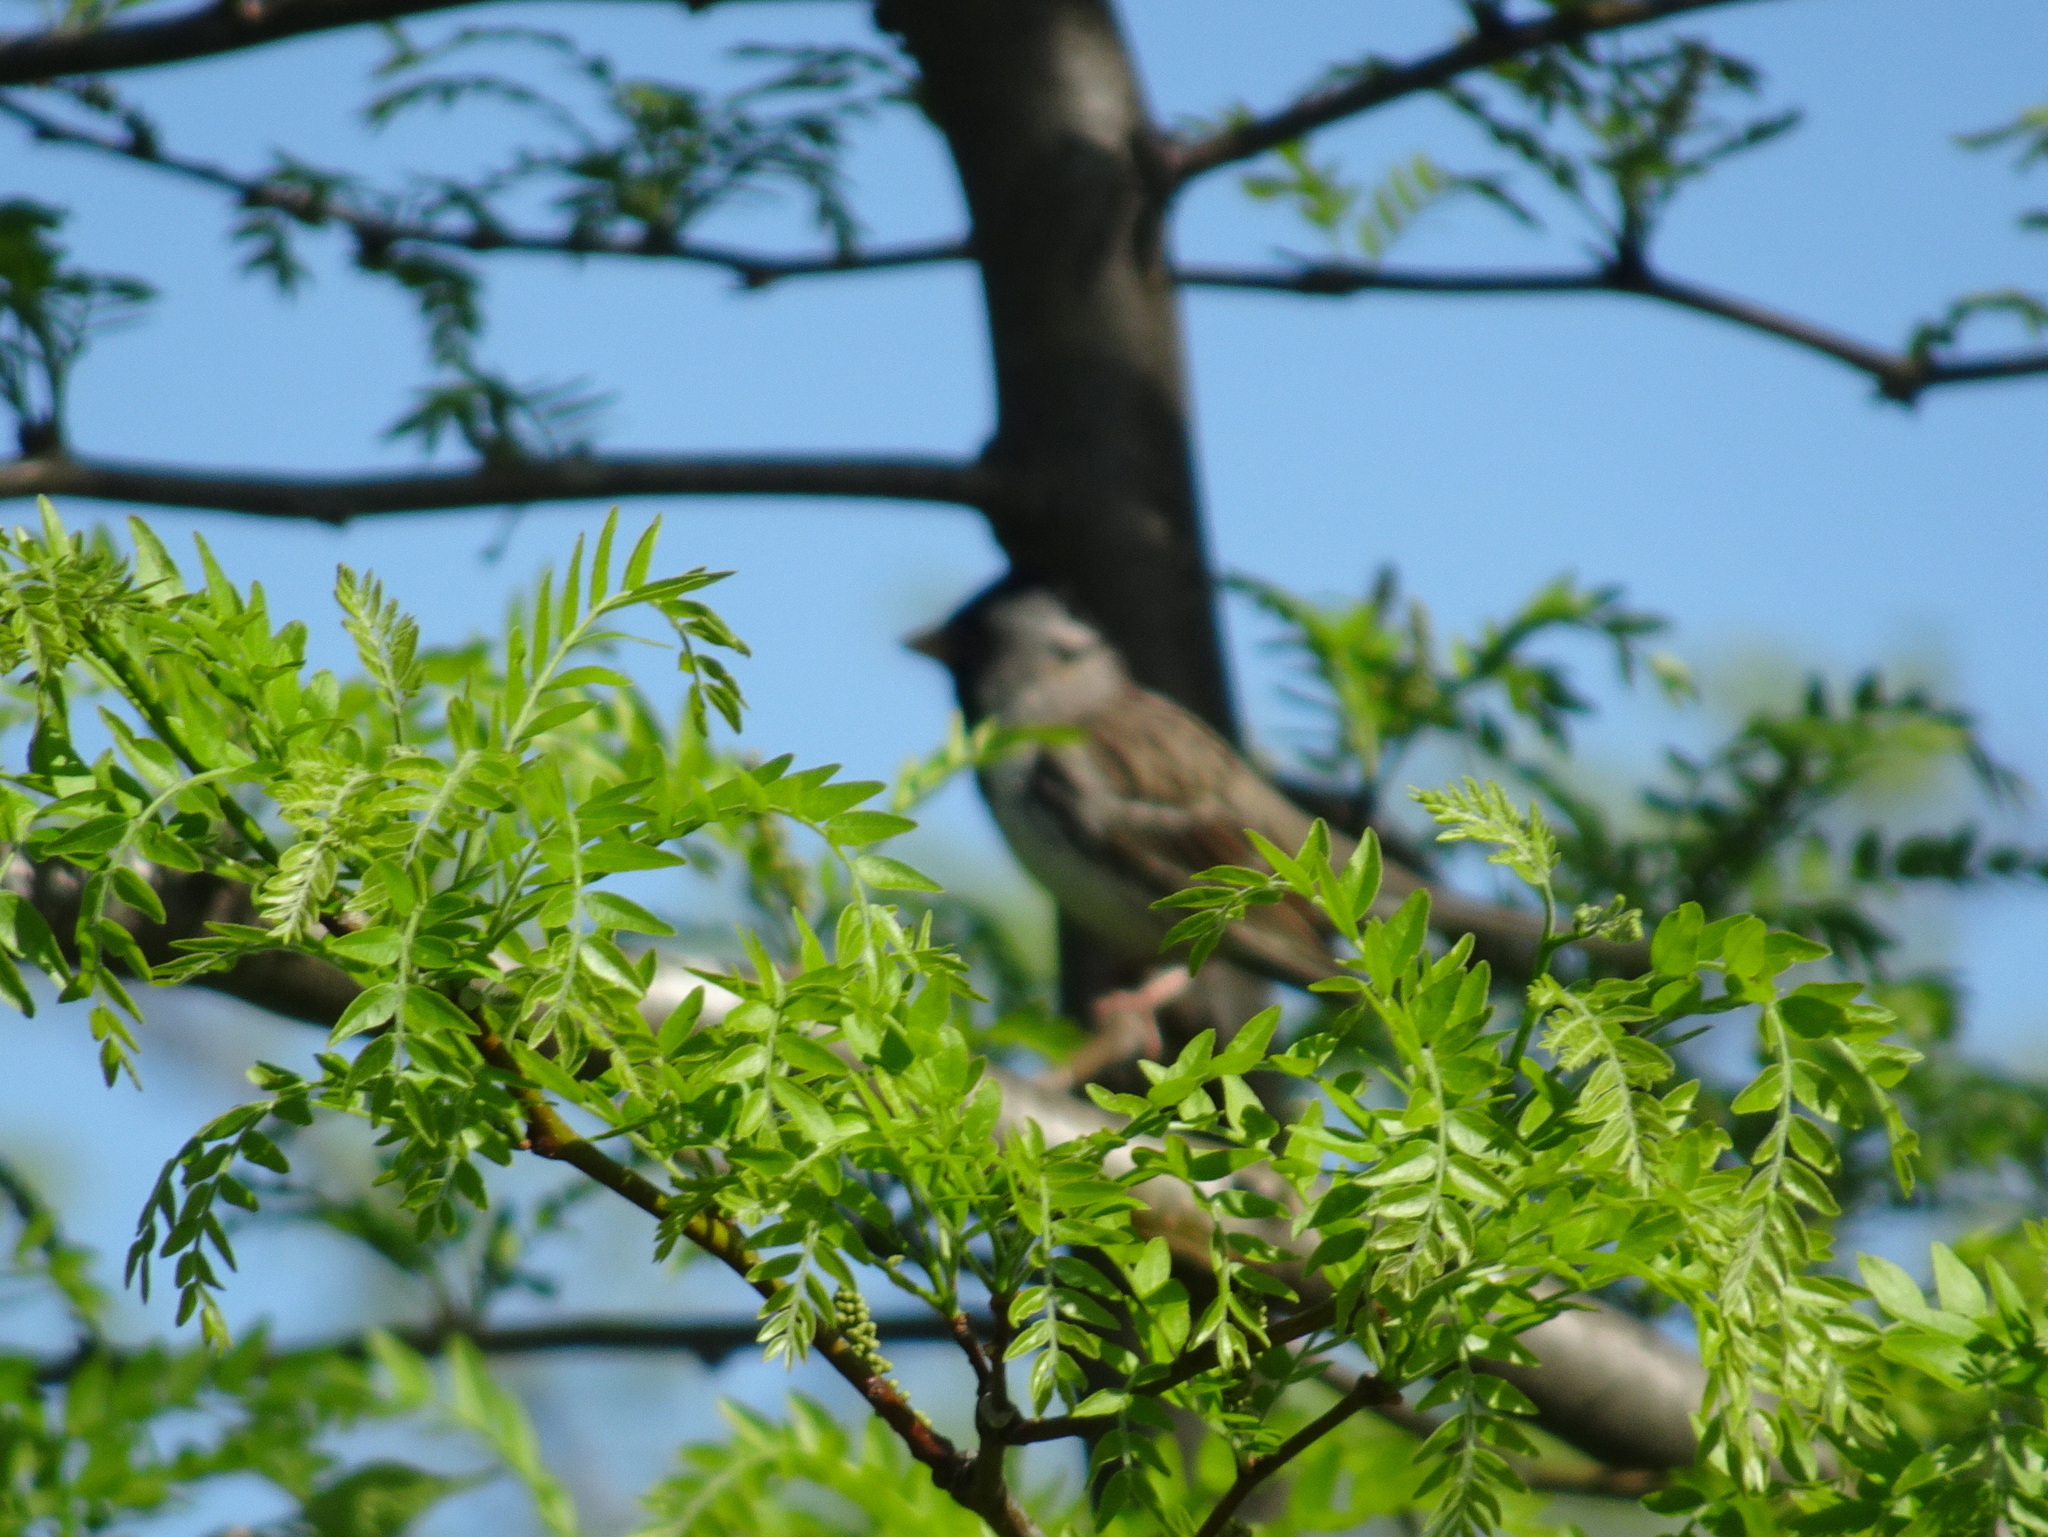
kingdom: Animalia
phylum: Chordata
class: Aves
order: Passeriformes
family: Passerellidae
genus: Zonotrichia
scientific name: Zonotrichia querula
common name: Harris's sparrow
